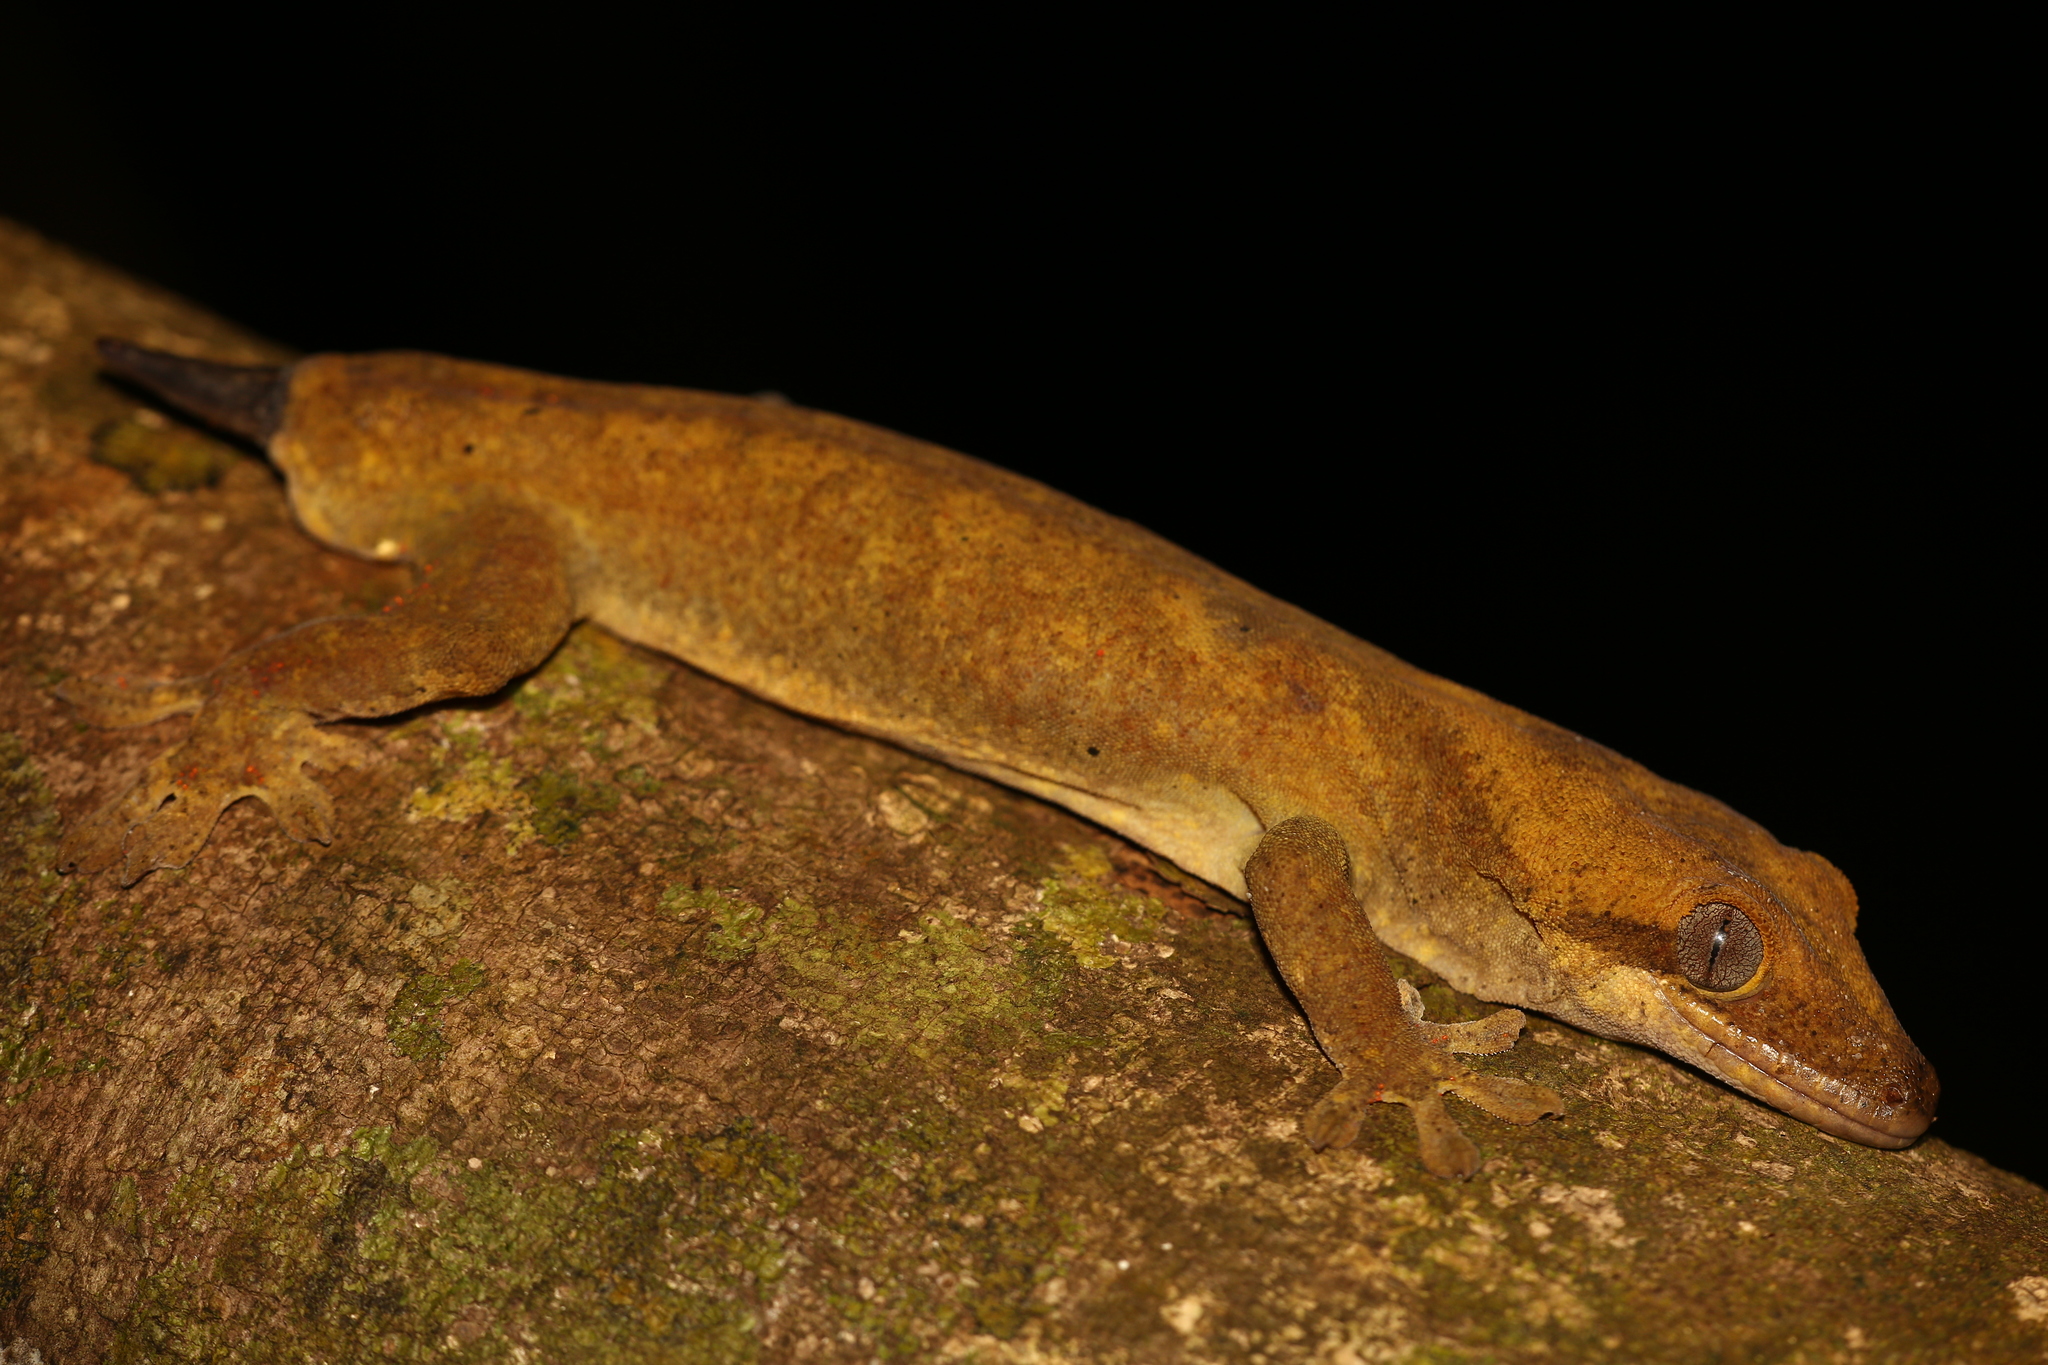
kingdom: Animalia
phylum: Chordata
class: Squamata
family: Diplodactylidae
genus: Correlophus
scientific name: Correlophus sarasinorum
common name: Roux's giant gecko
